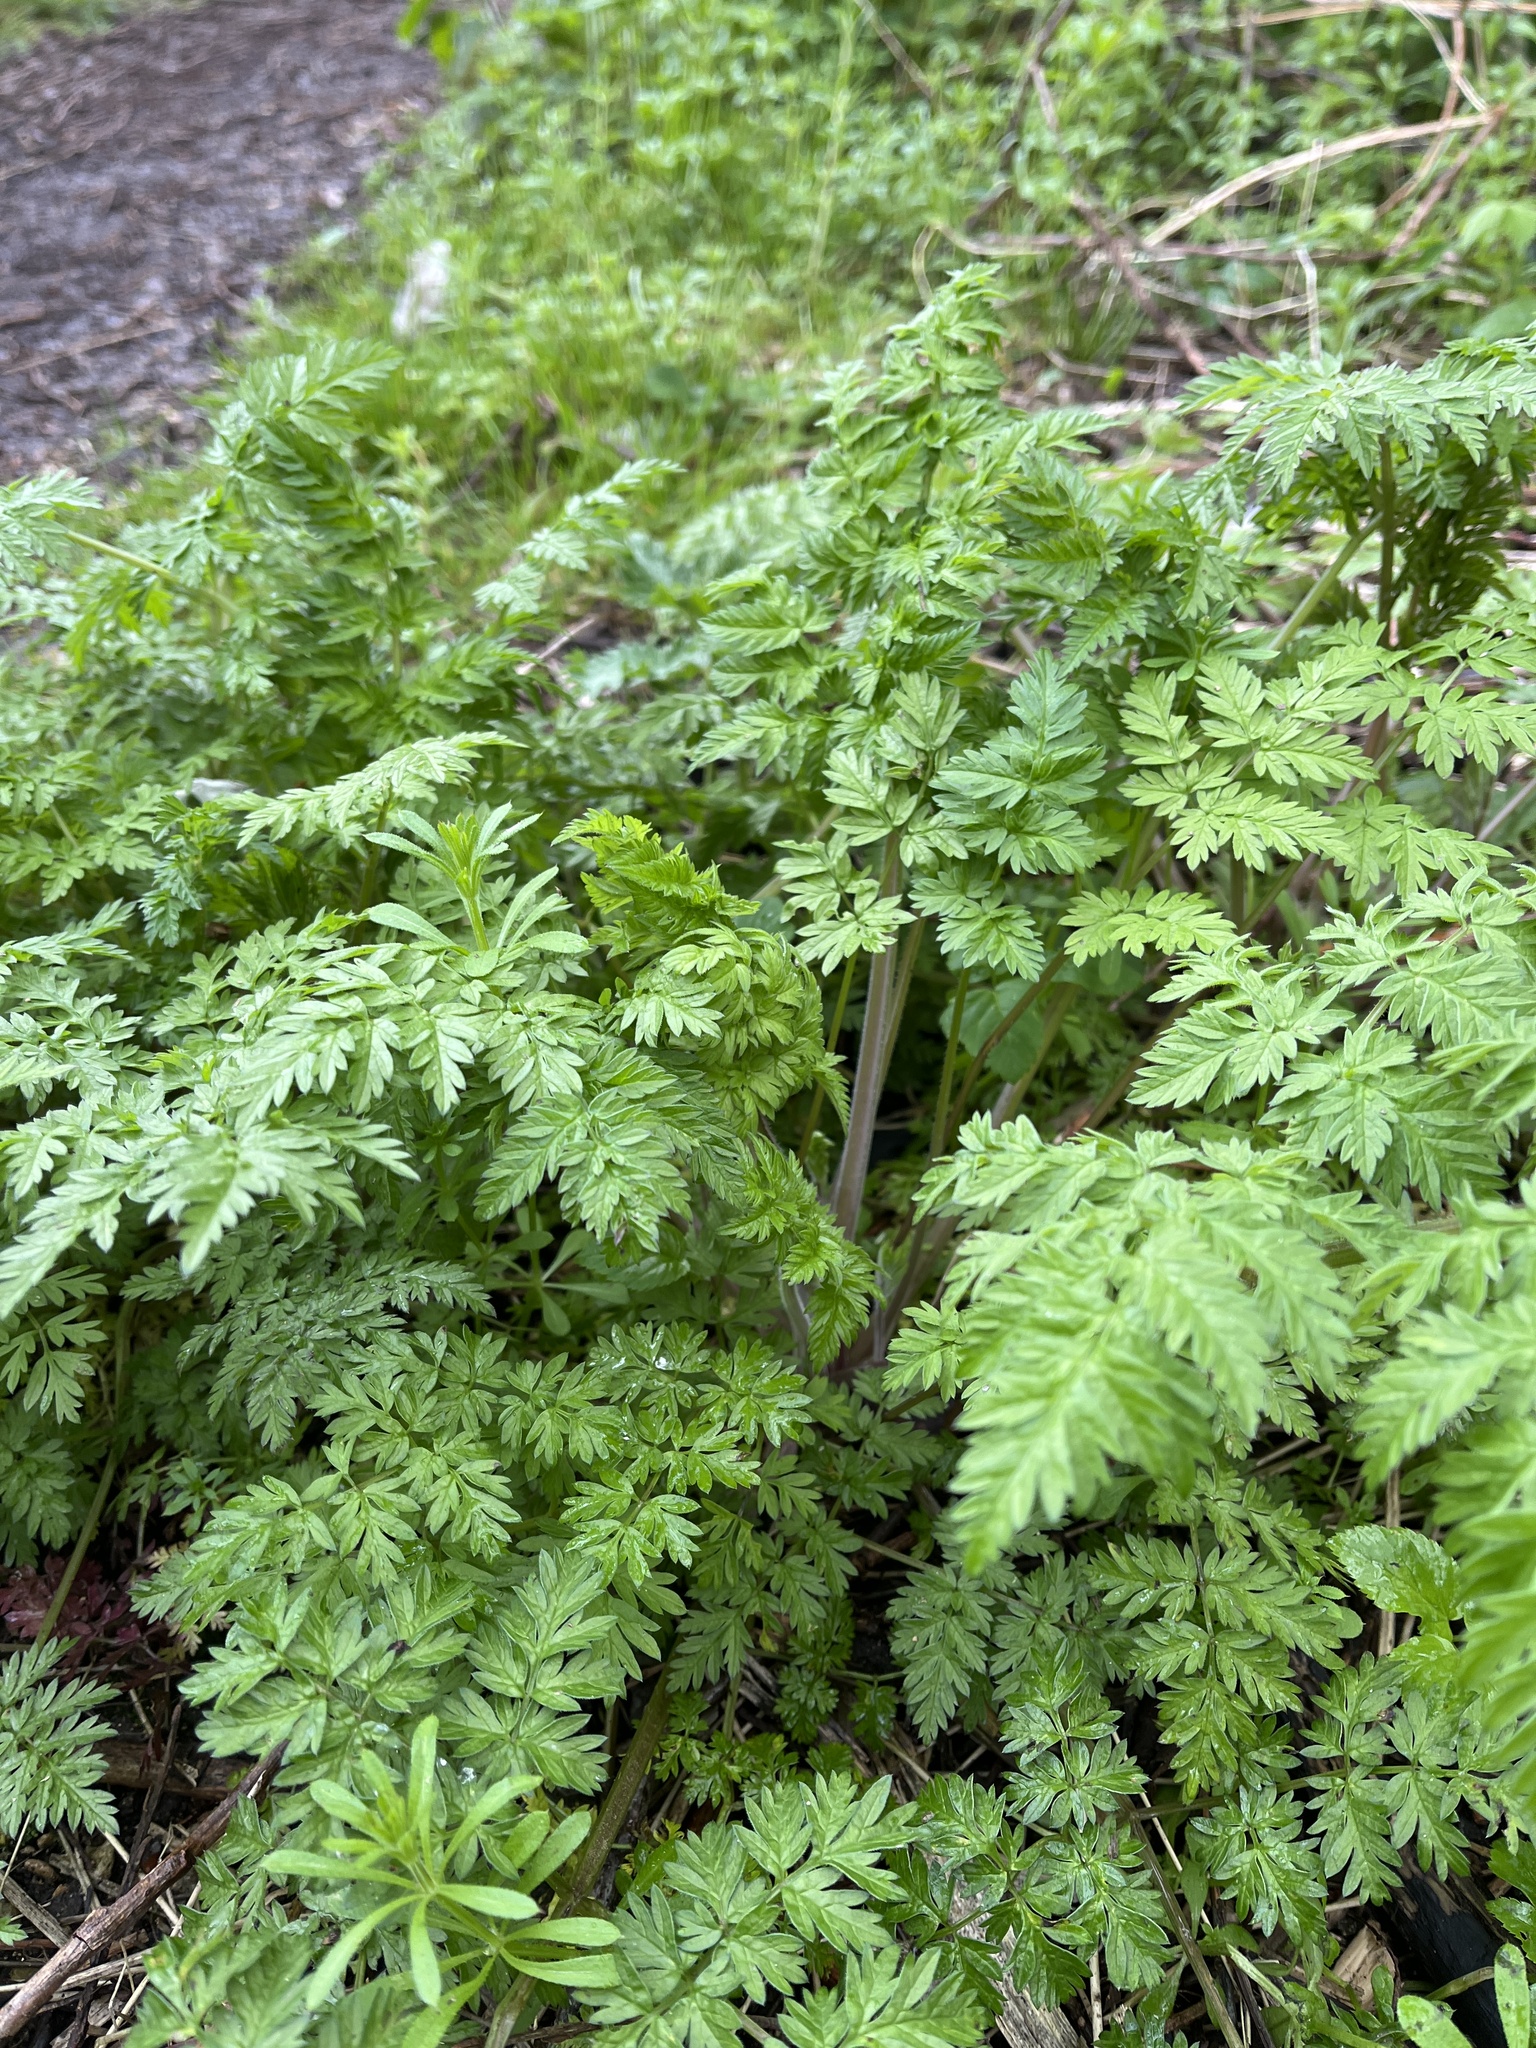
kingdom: Plantae
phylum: Tracheophyta
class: Magnoliopsida
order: Apiales
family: Apiaceae
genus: Anthriscus
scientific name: Anthriscus sylvestris
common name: Cow parsley
